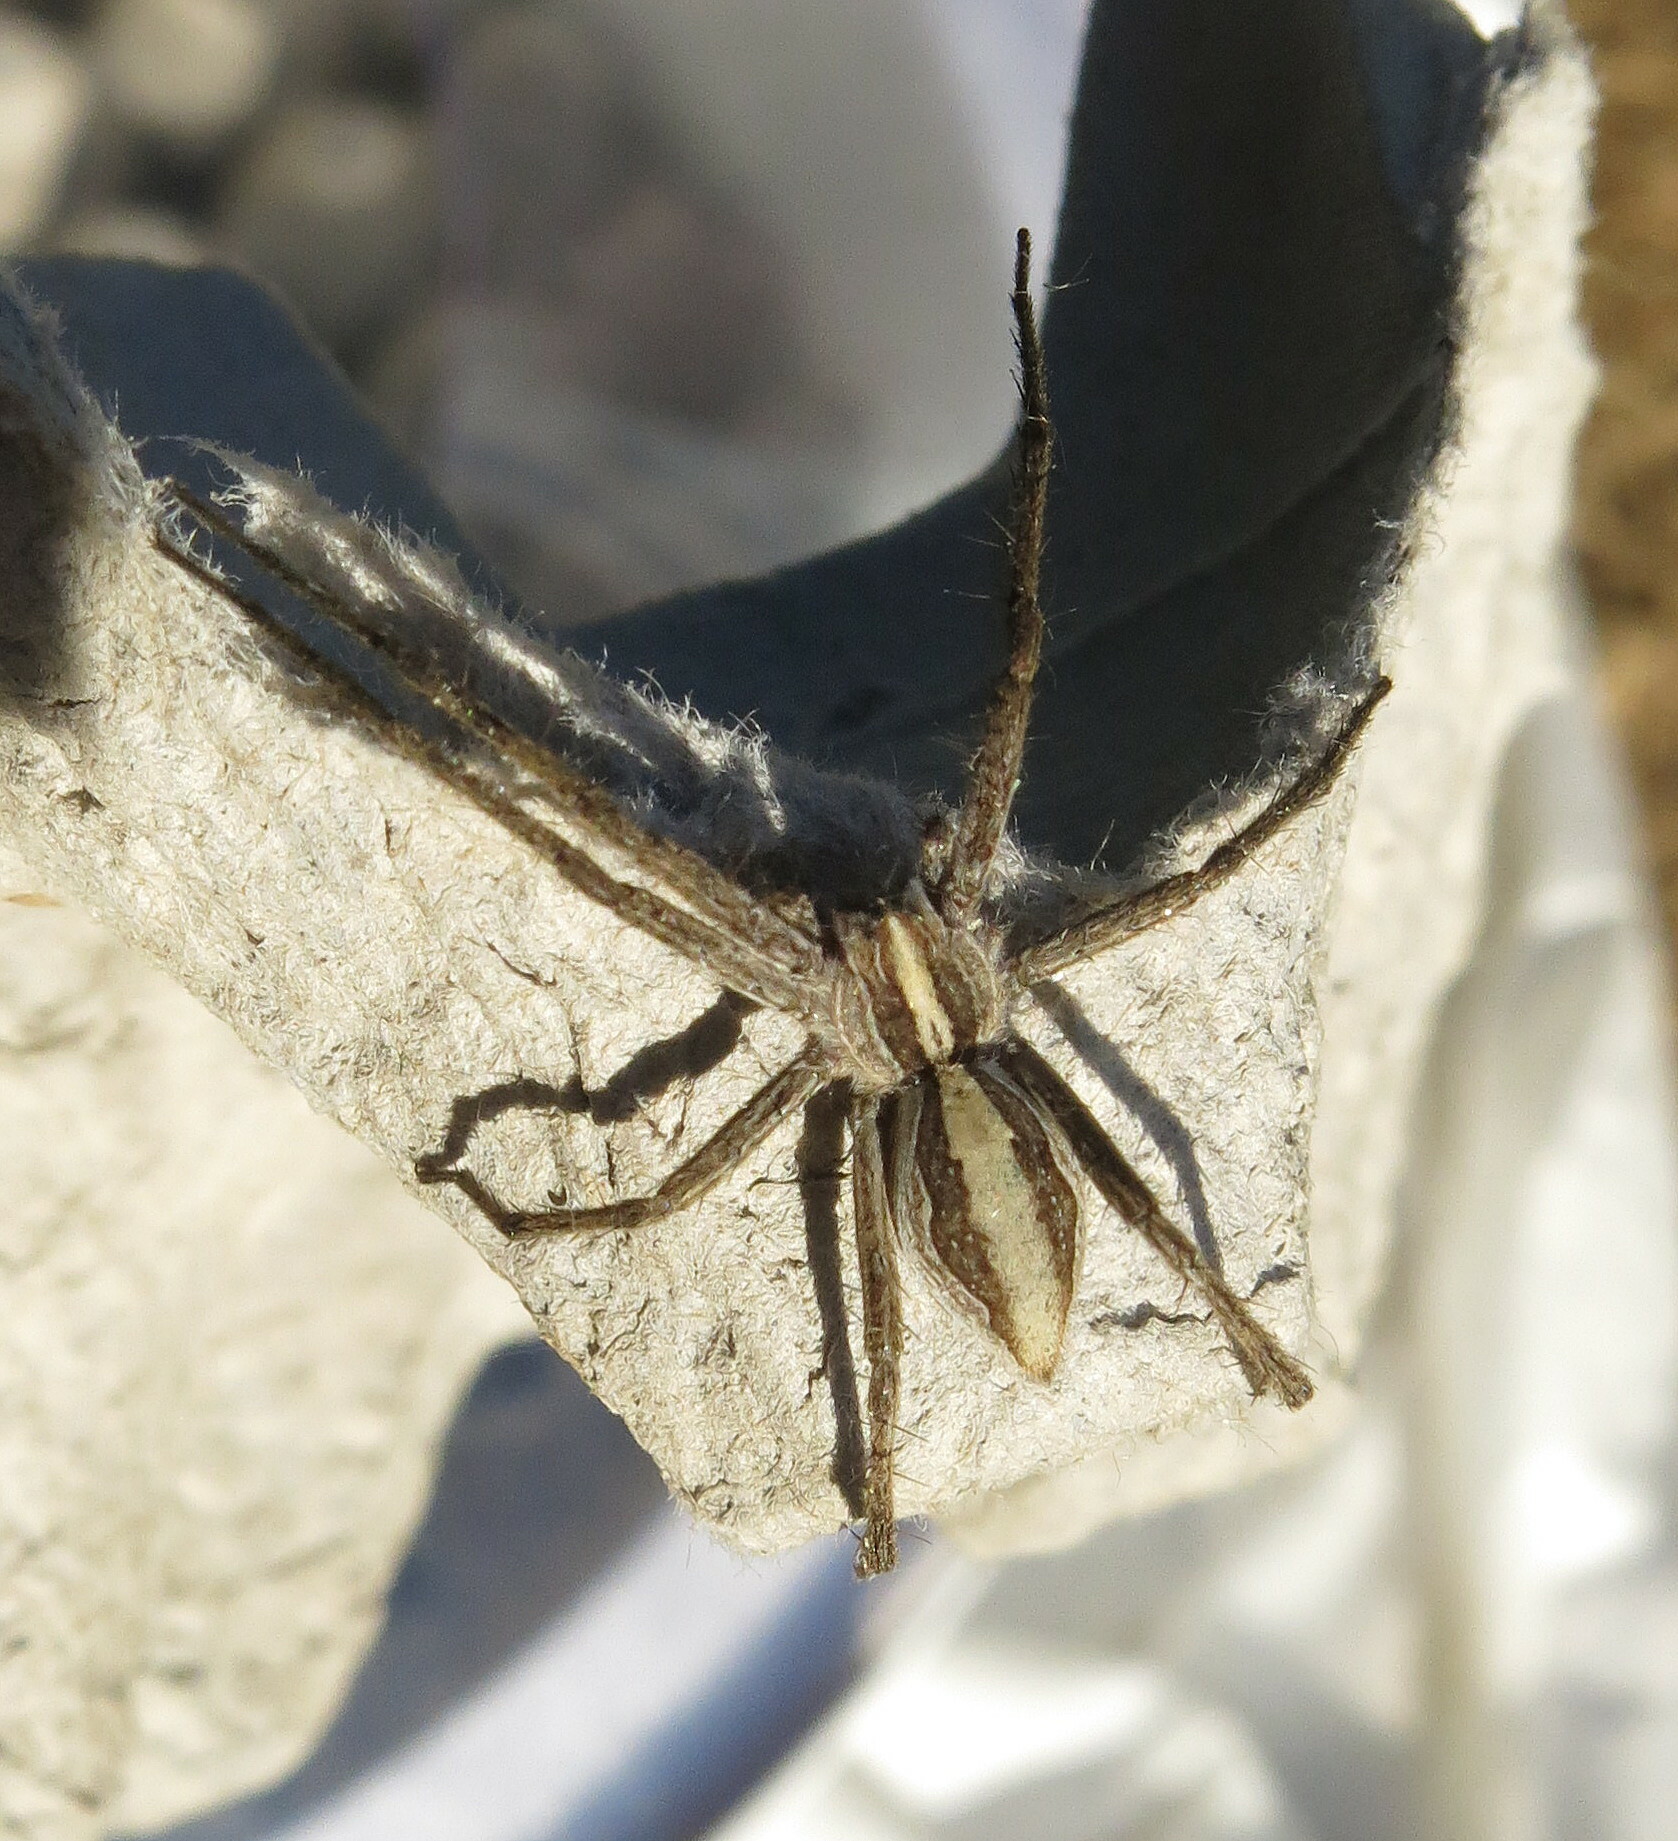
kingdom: Animalia
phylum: Arthropoda
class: Arachnida
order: Araneae
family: Pisauridae
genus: Pisaura
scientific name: Pisaura mirabilis
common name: Tent spider
